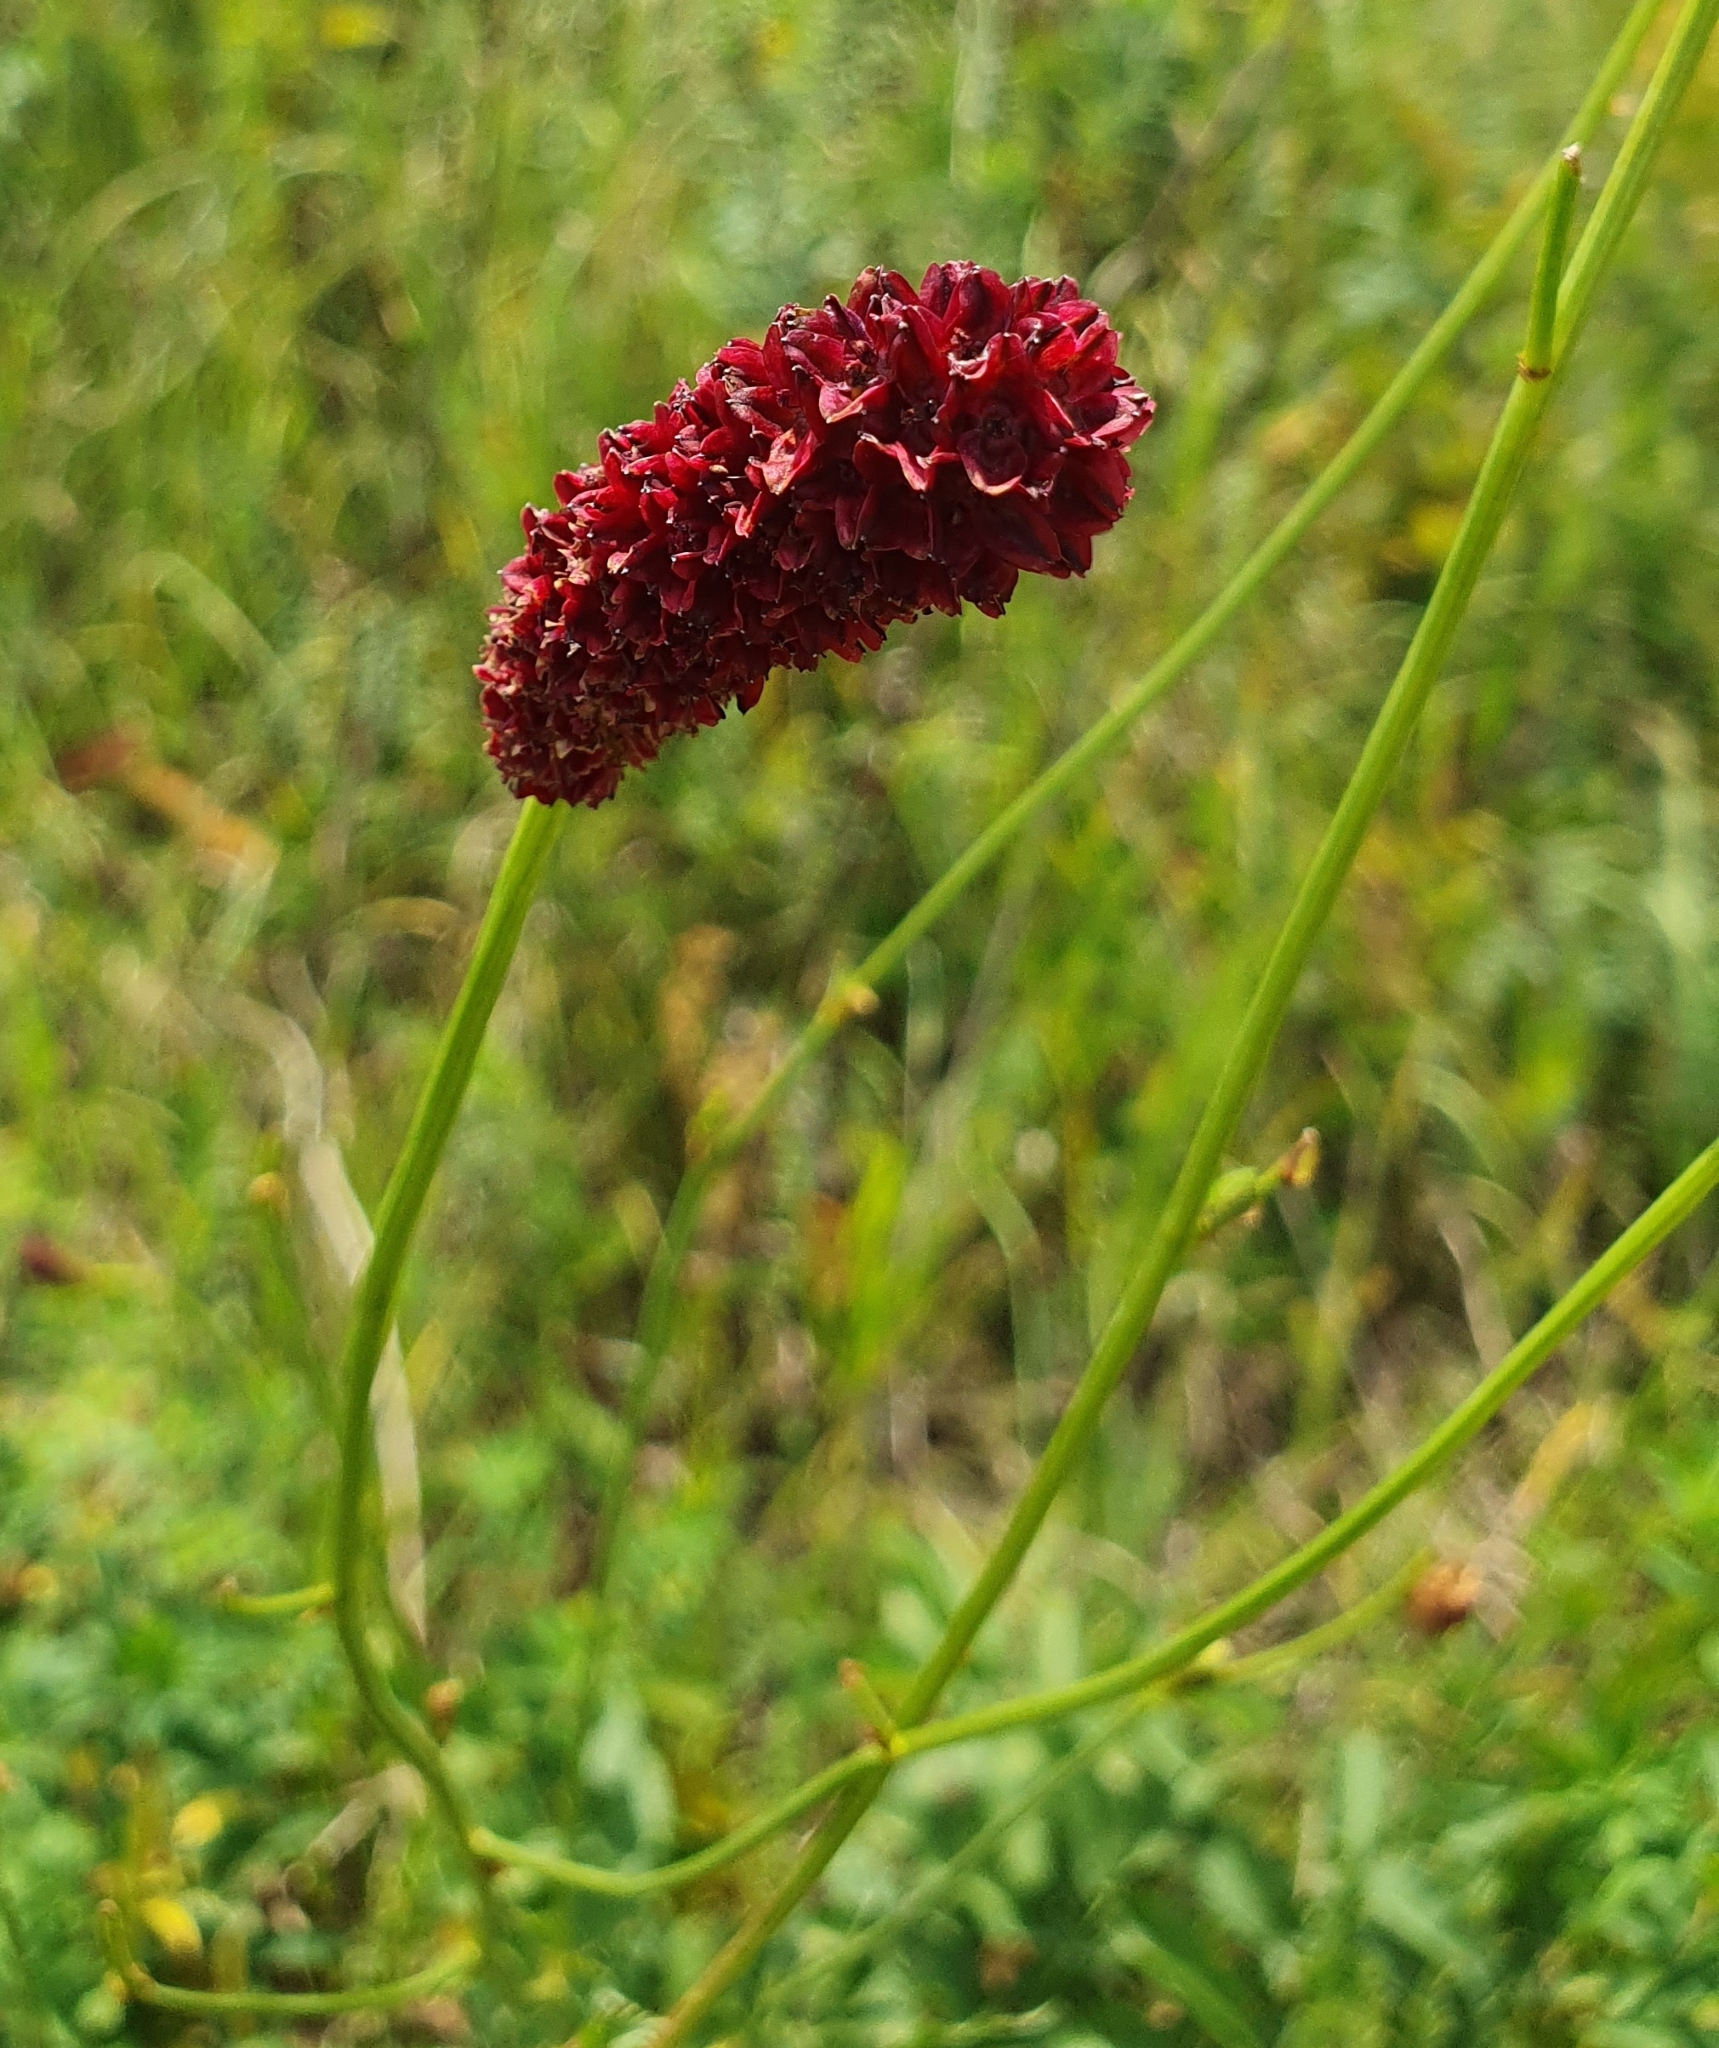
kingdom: Plantae
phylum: Tracheophyta
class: Magnoliopsida
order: Rosales
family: Rosaceae
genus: Sanguisorba
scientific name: Sanguisorba officinalis
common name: Great burnet
